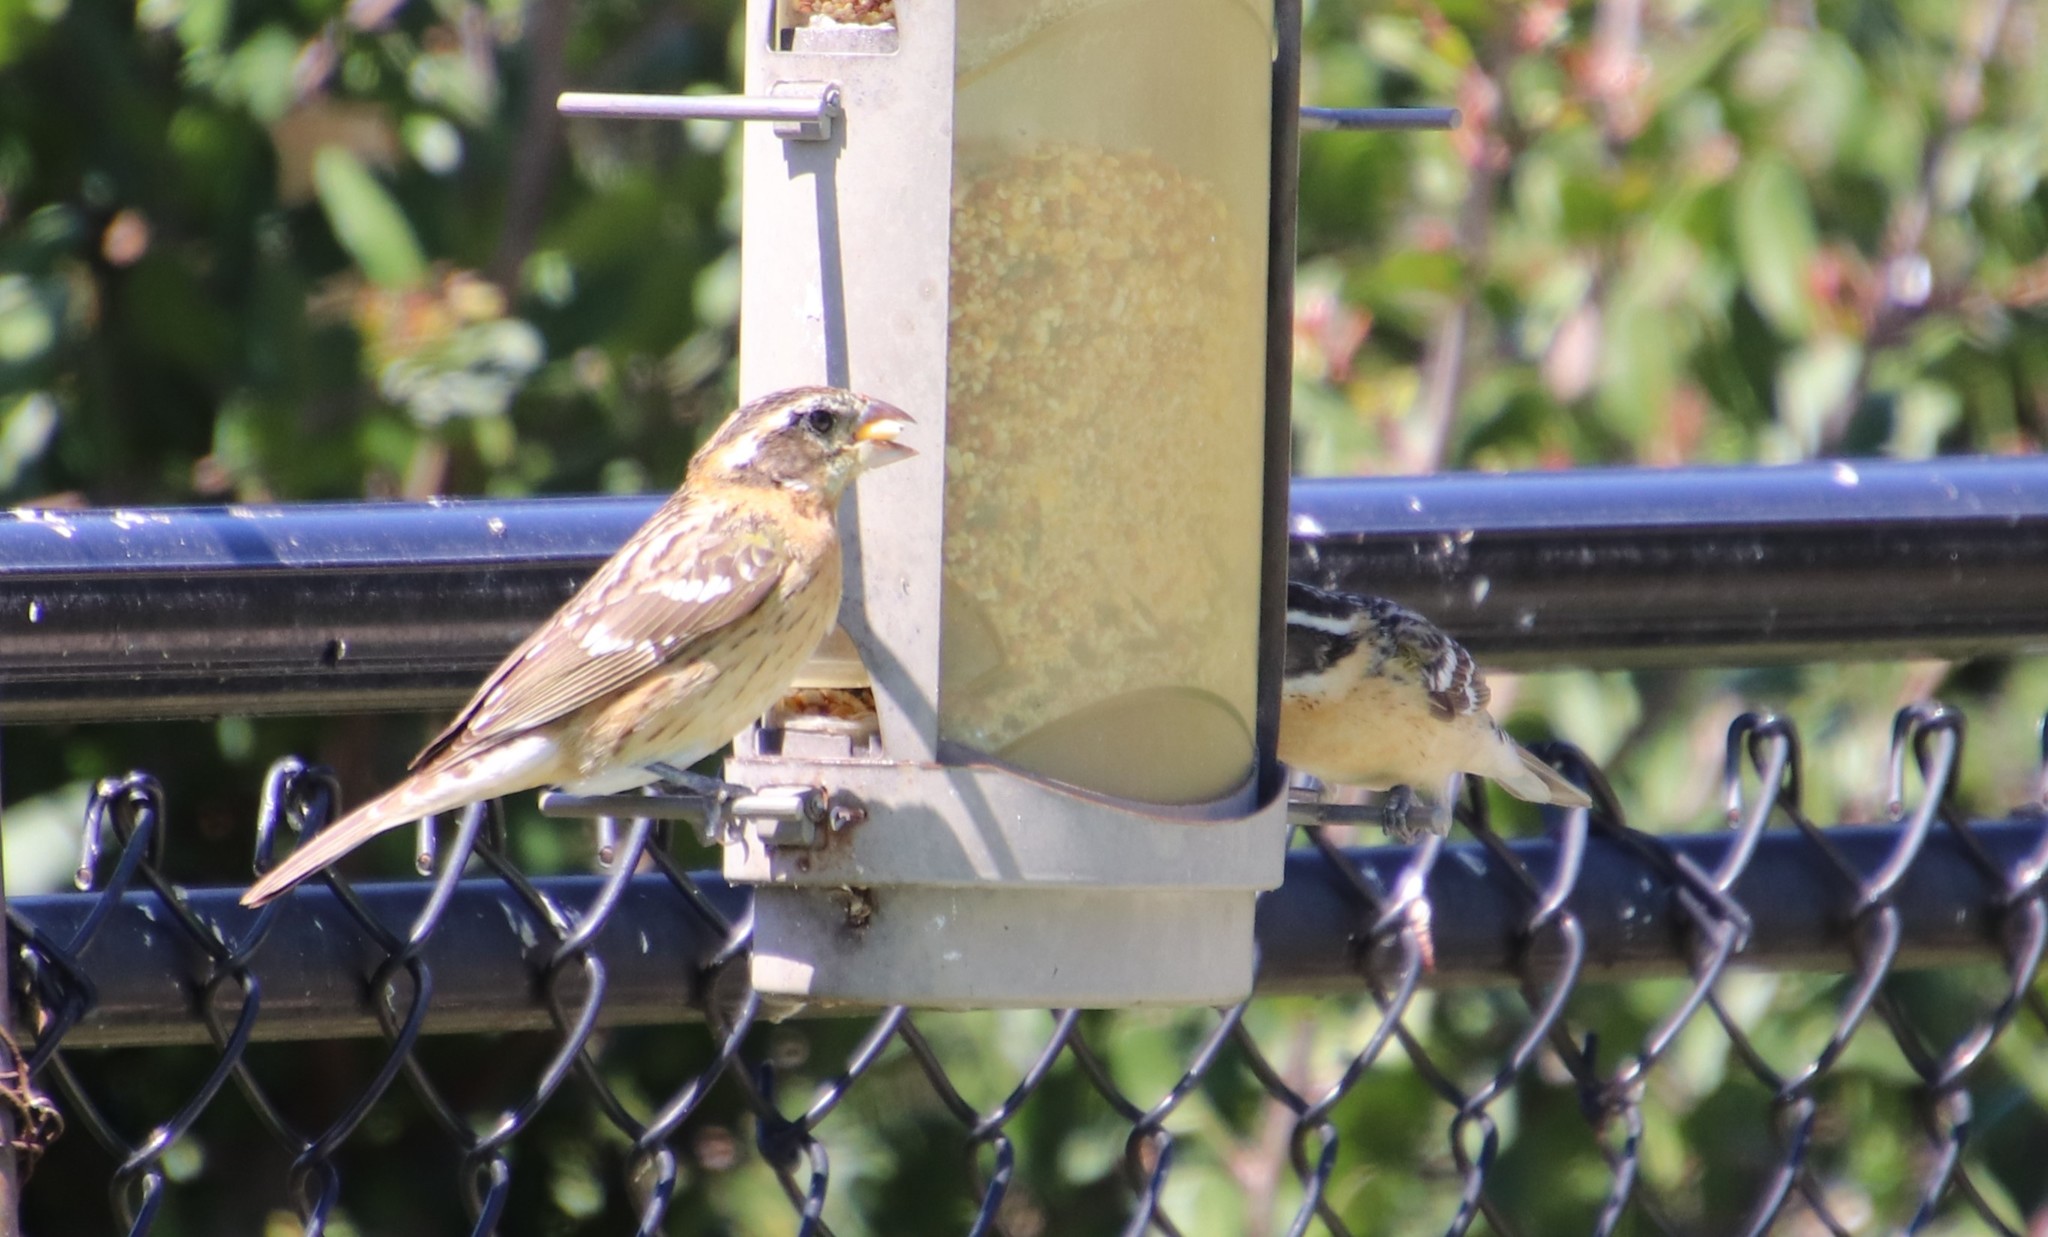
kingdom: Animalia
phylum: Chordata
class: Aves
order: Passeriformes
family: Cardinalidae
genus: Pheucticus
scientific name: Pheucticus melanocephalus
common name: Black-headed grosbeak
